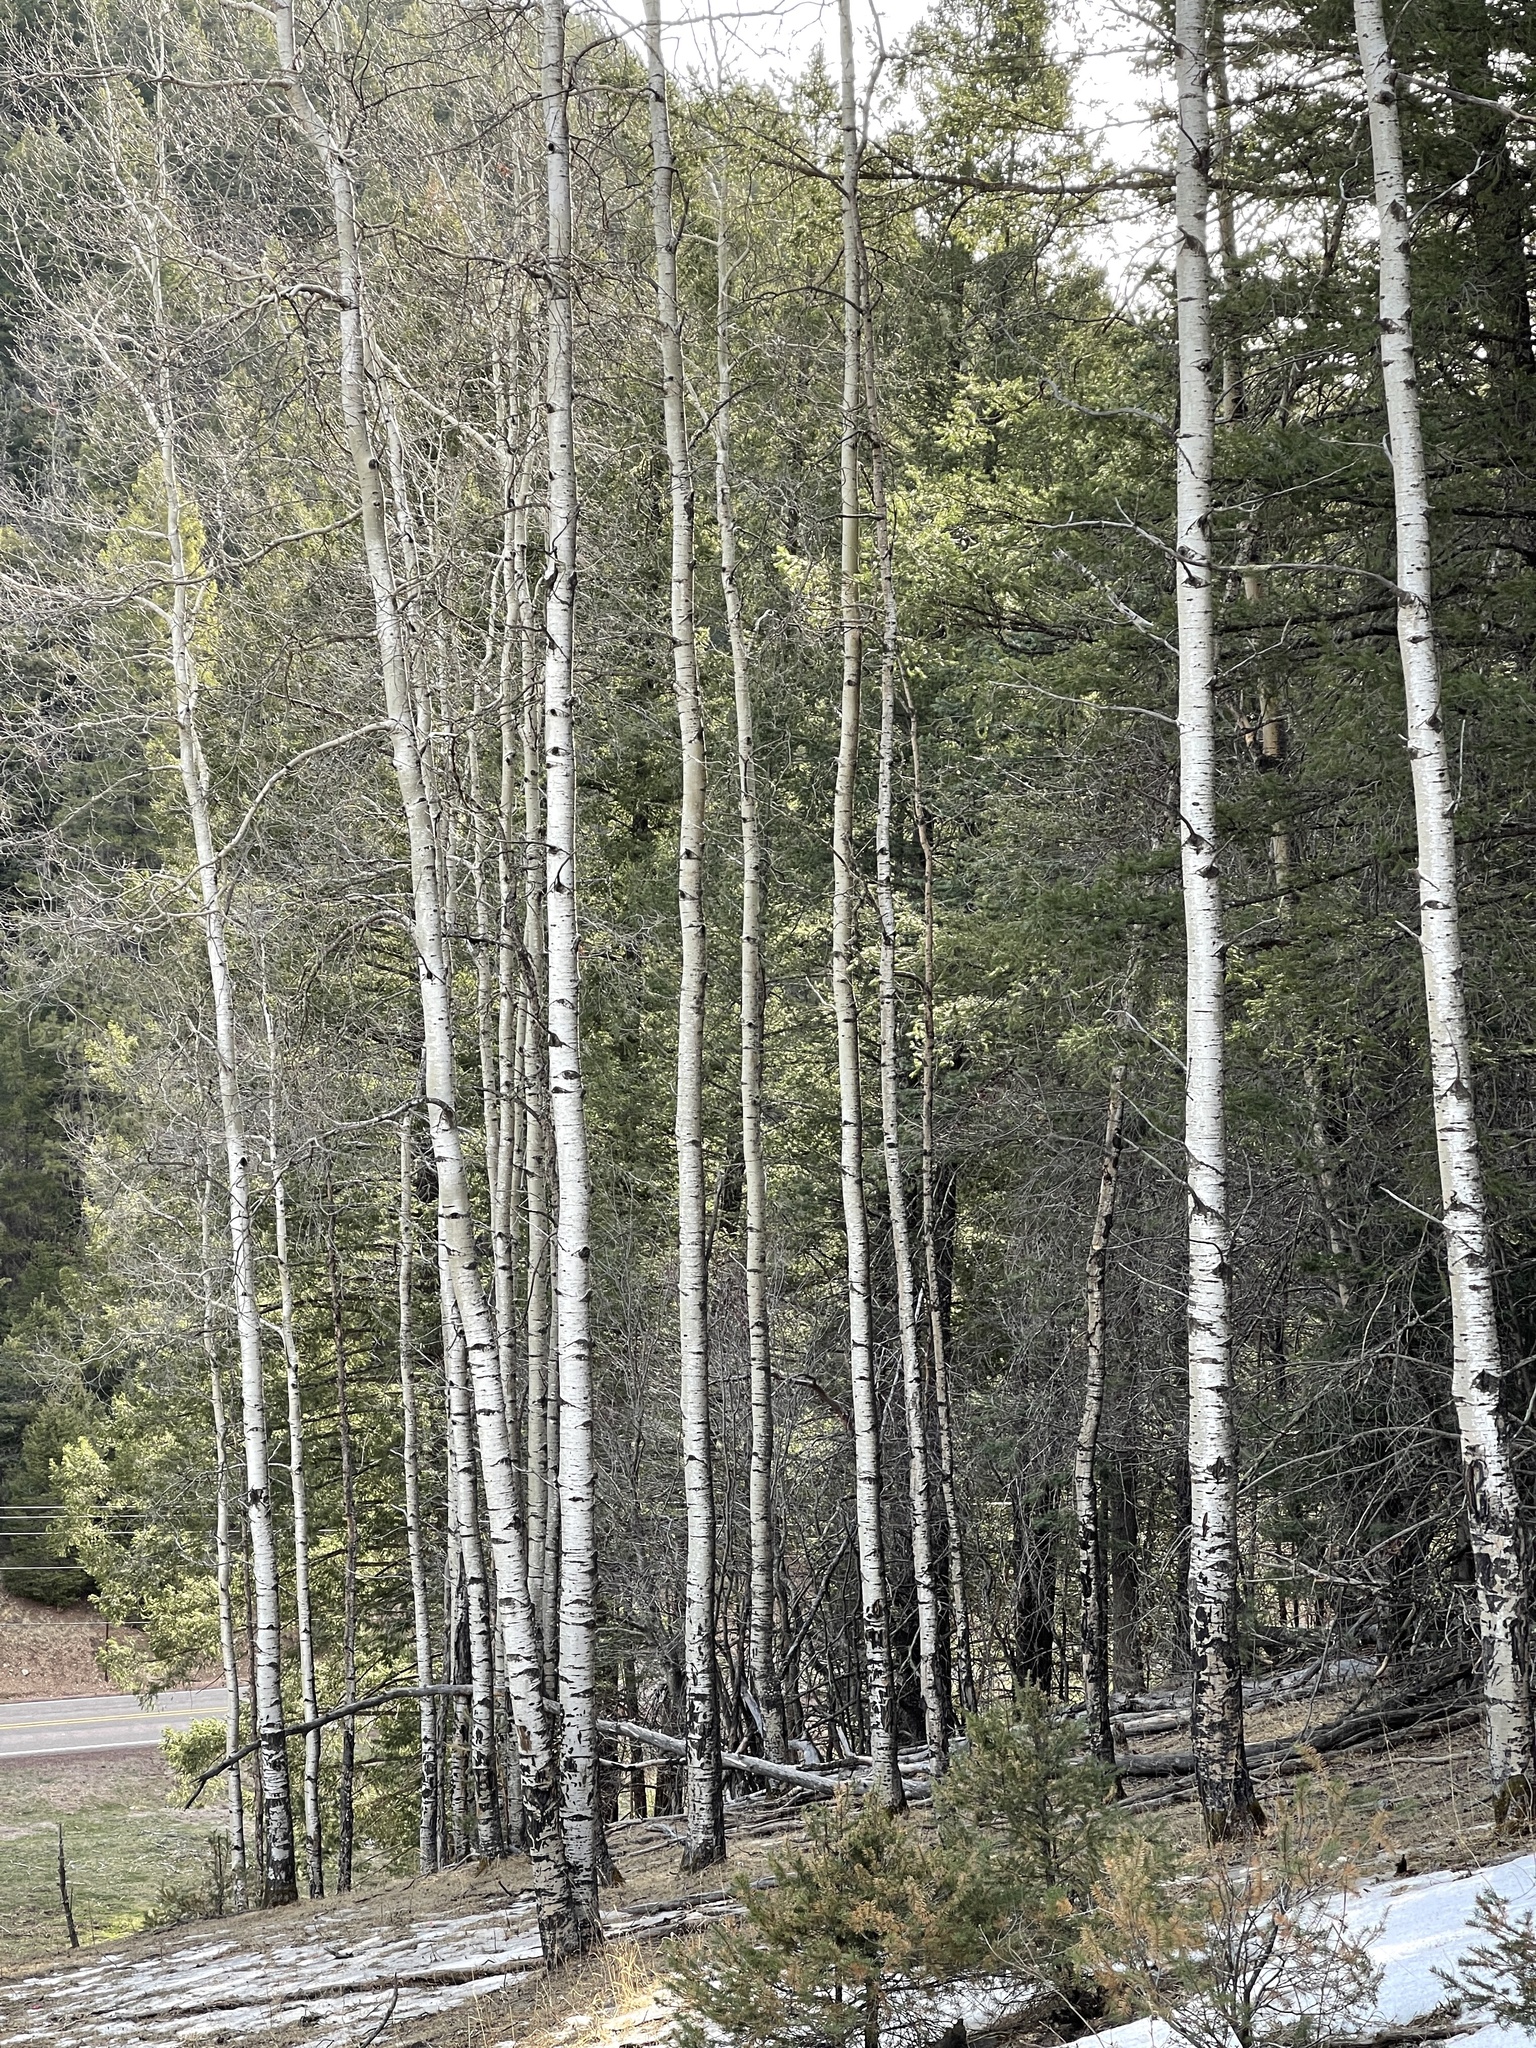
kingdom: Plantae
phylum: Tracheophyta
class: Magnoliopsida
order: Malpighiales
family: Salicaceae
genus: Populus
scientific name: Populus tremuloides
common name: Quaking aspen
